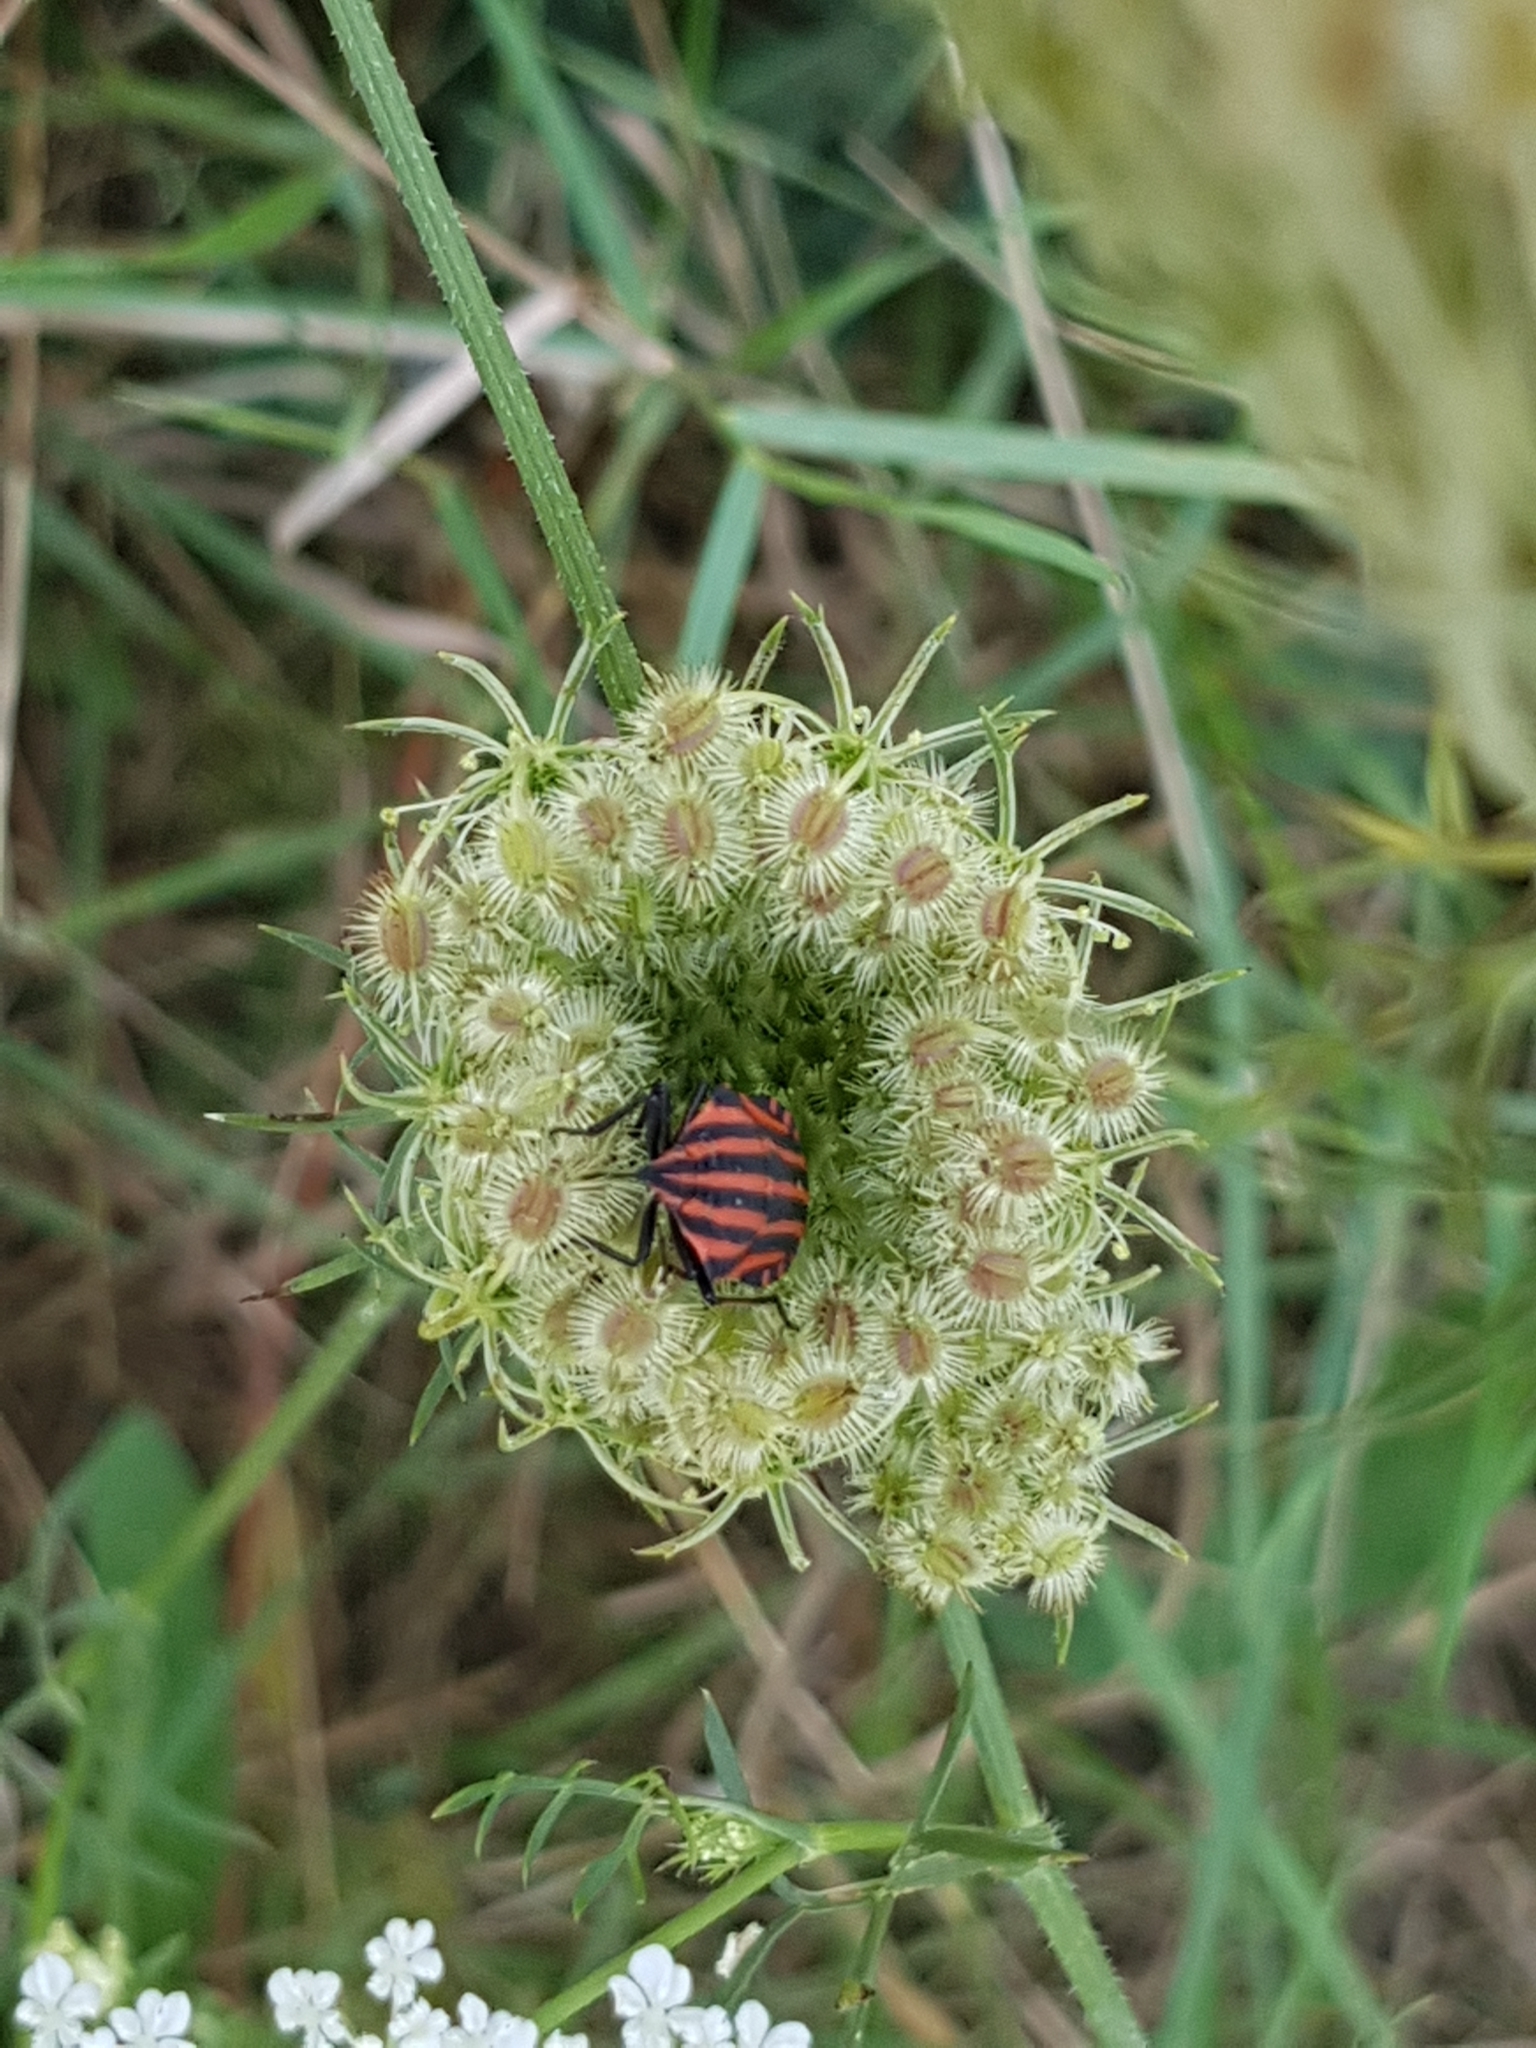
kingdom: Animalia
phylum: Arthropoda
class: Insecta
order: Hemiptera
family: Pentatomidae
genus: Graphosoma
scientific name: Graphosoma italicum
